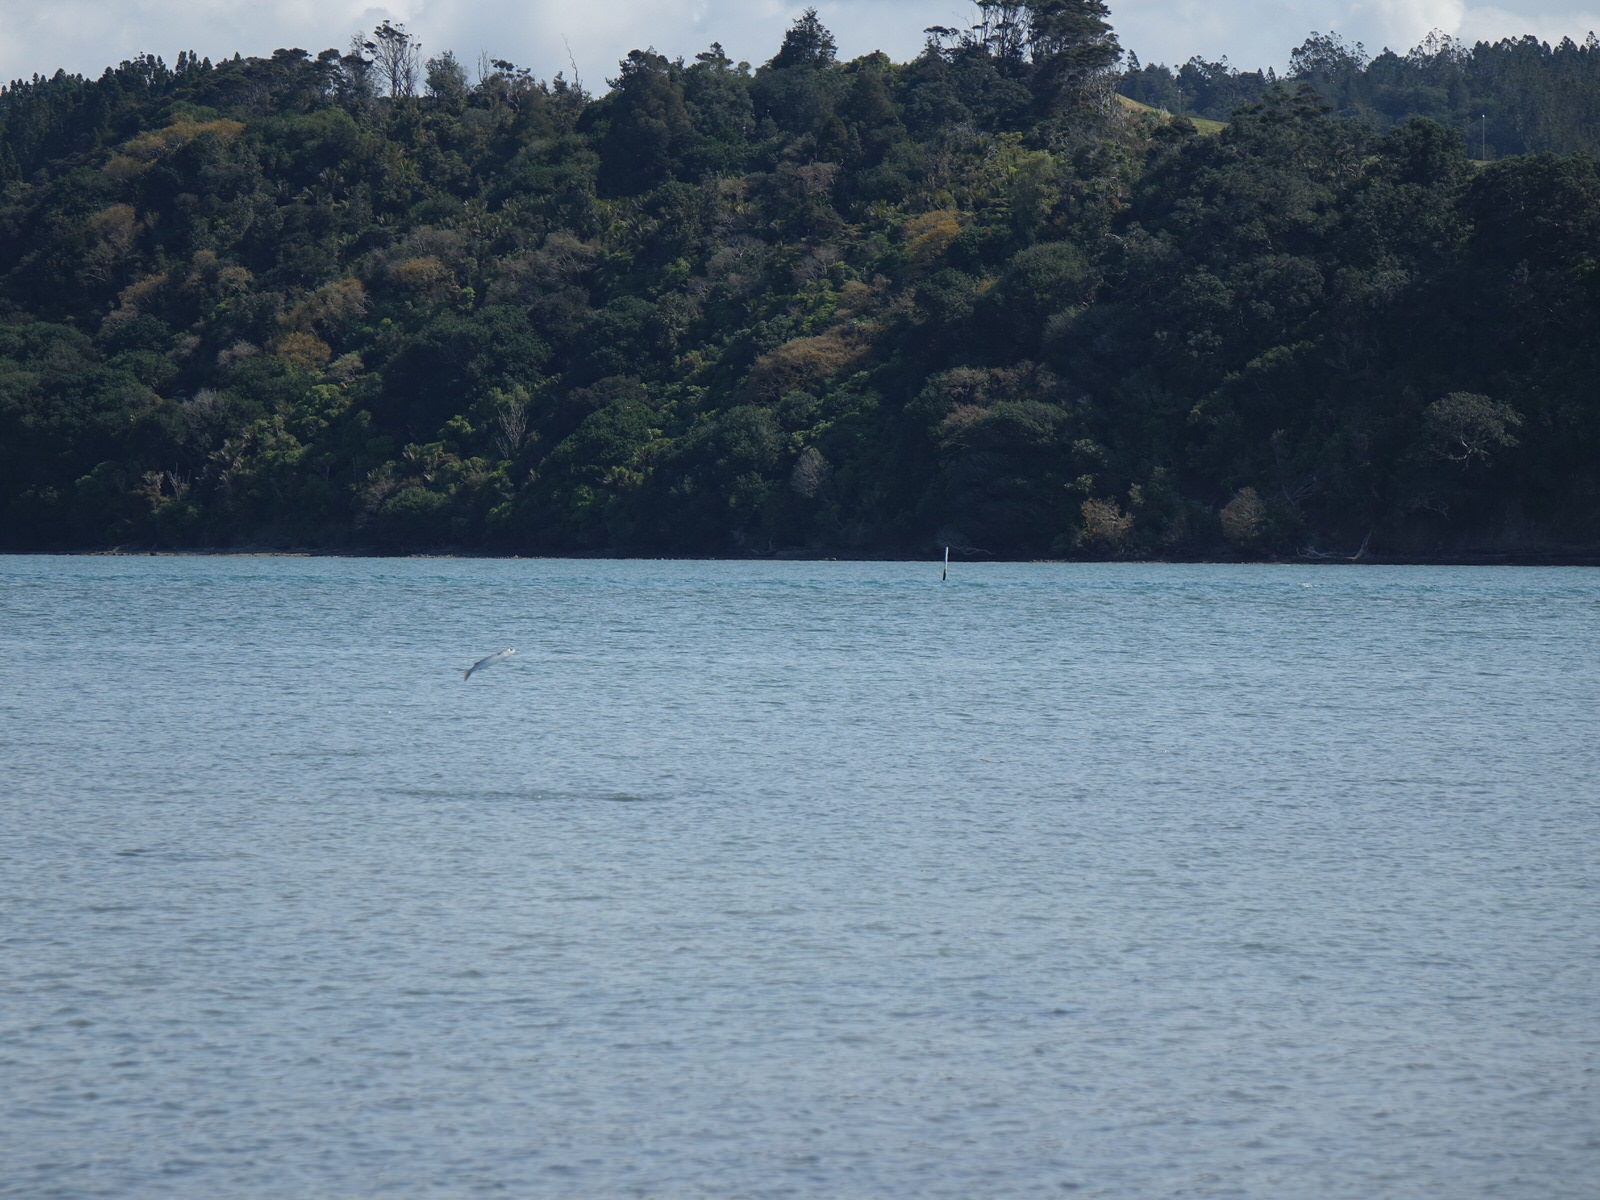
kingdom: Animalia
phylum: Chordata
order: Mugiliformes
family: Mugilidae
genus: Mugil
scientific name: Mugil cephalus
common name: Grey mullet
